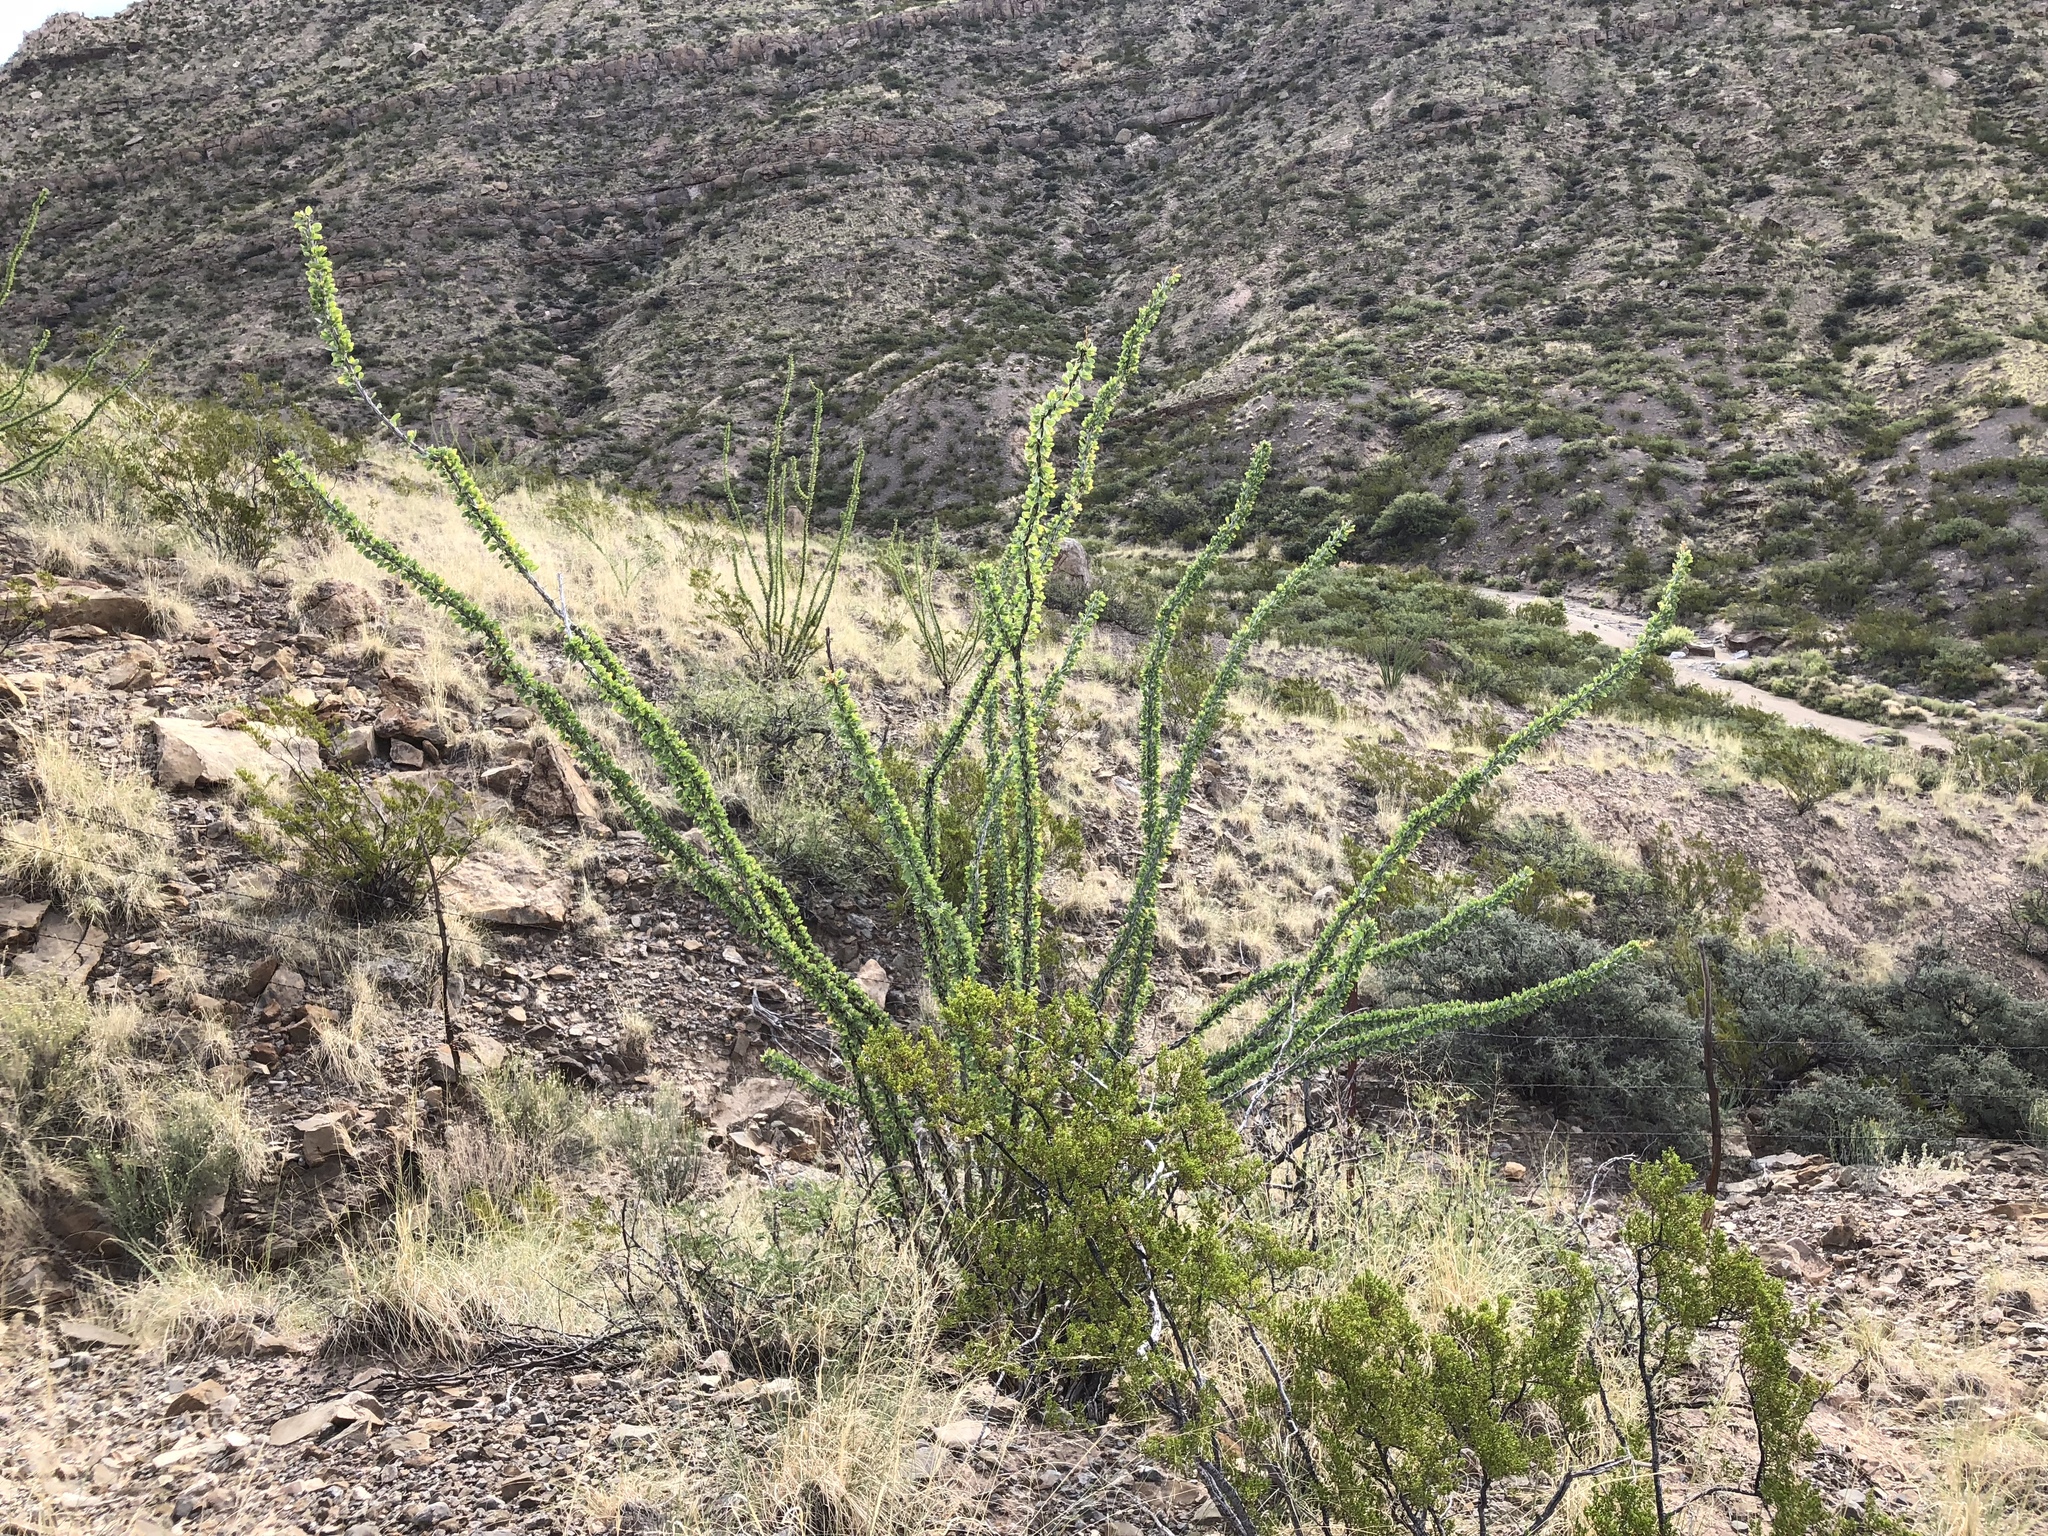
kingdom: Plantae
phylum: Tracheophyta
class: Magnoliopsida
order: Ericales
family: Fouquieriaceae
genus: Fouquieria
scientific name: Fouquieria splendens
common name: Vine-cactus
